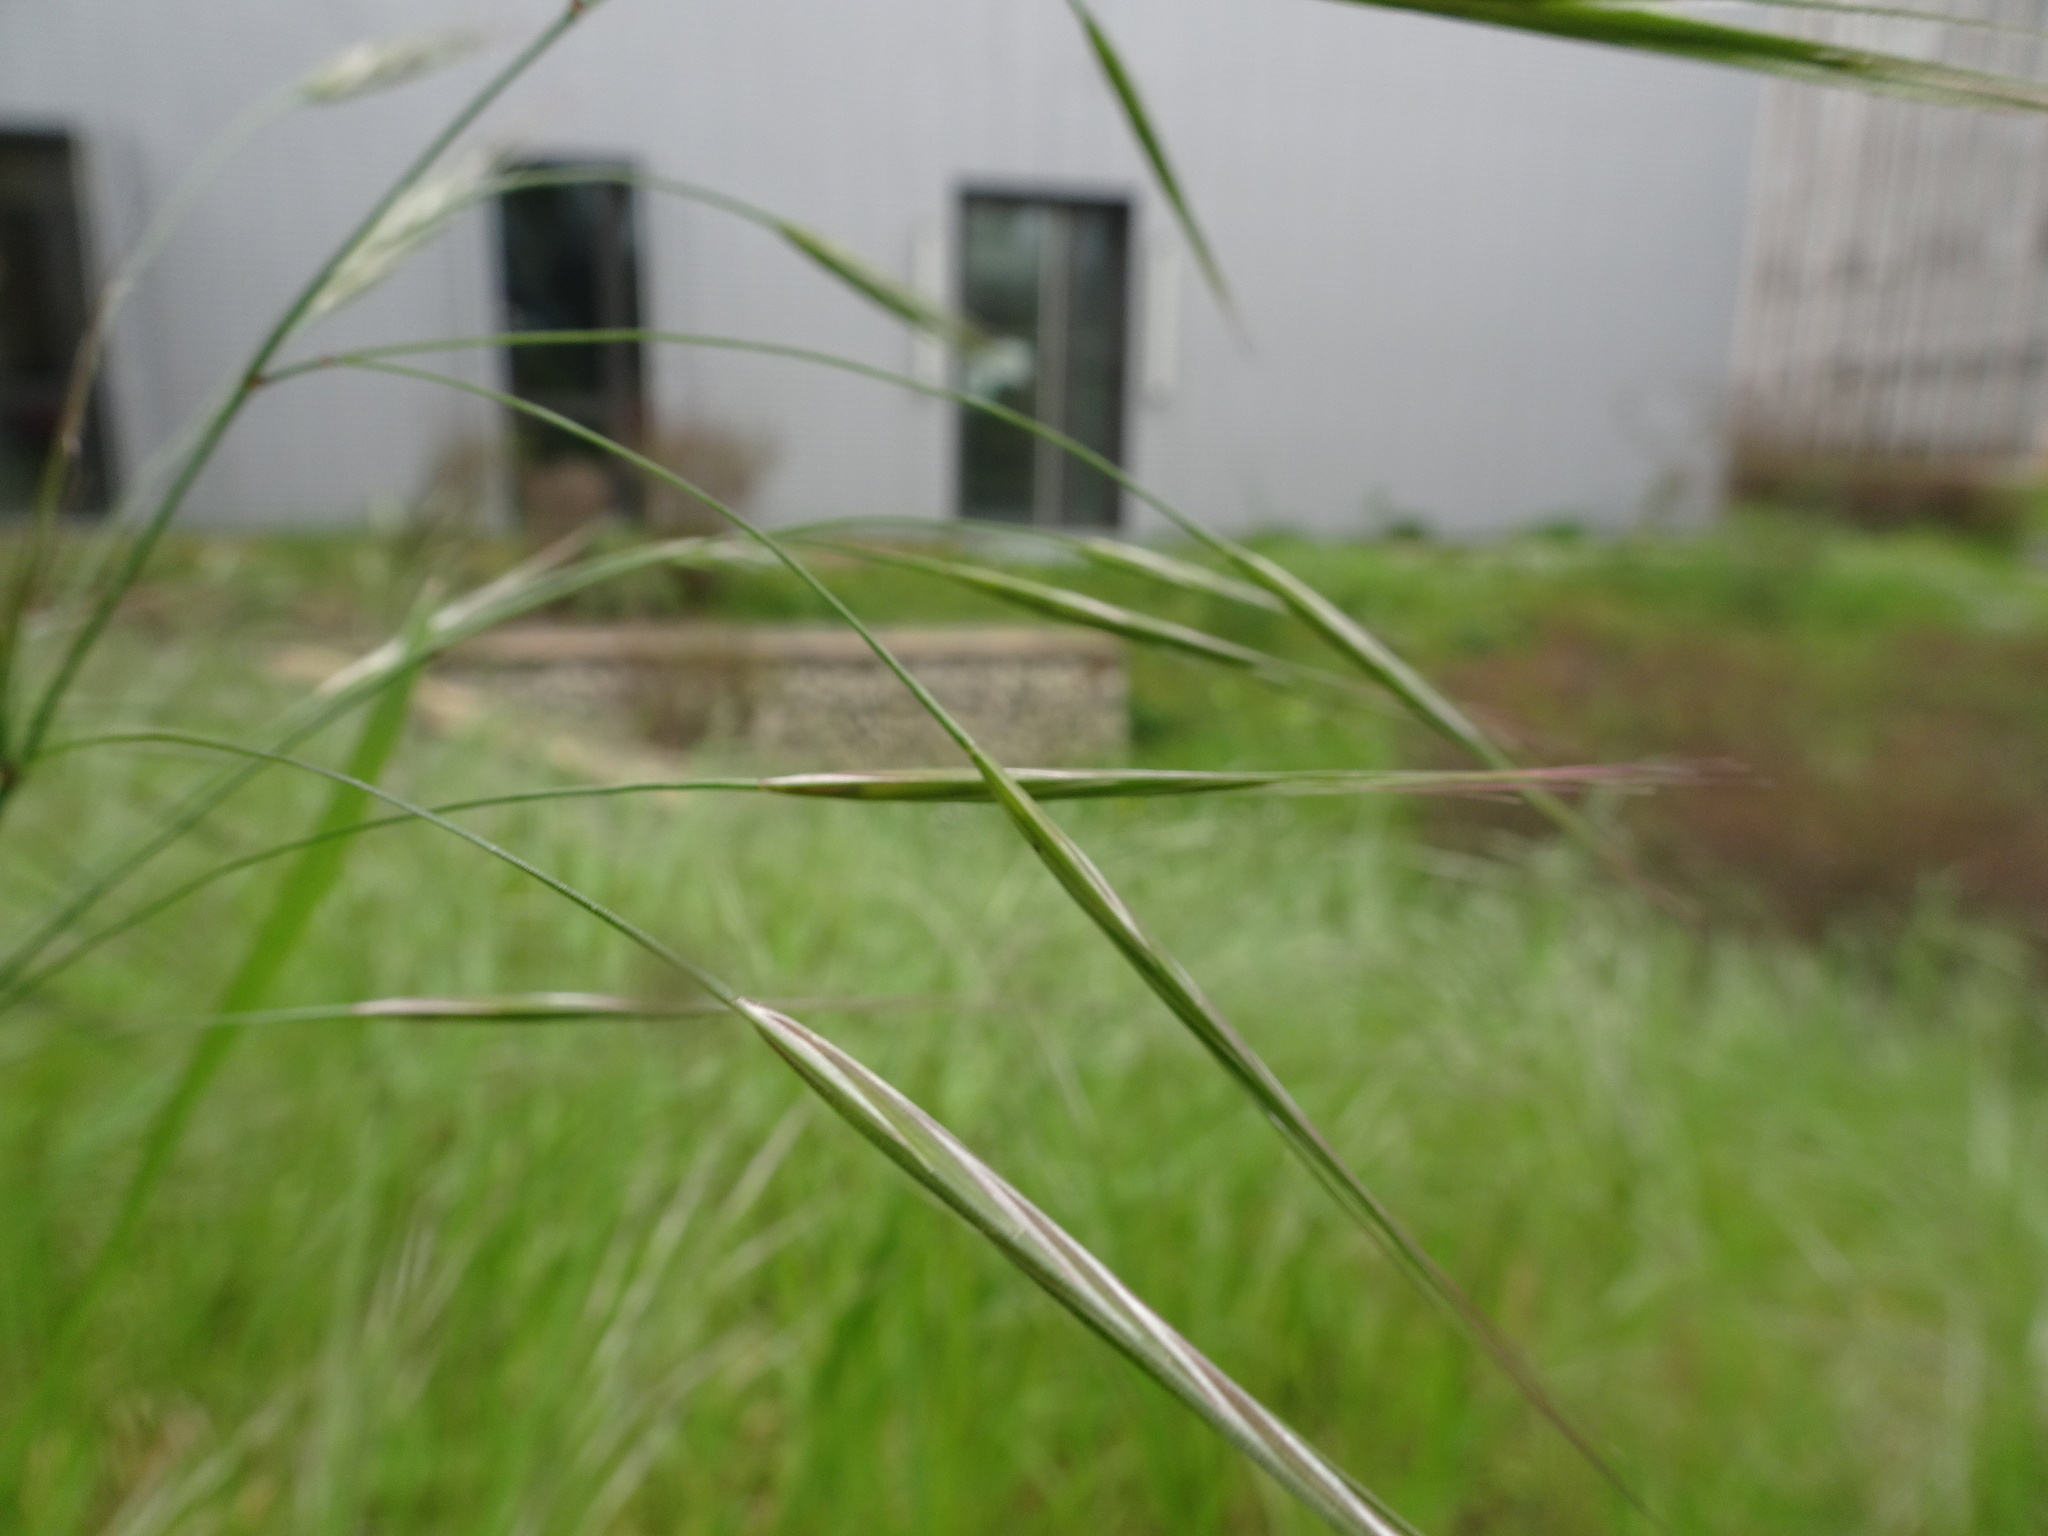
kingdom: Plantae
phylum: Tracheophyta
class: Liliopsida
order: Poales
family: Poaceae
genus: Bromus
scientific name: Bromus sterilis
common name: Poverty brome
